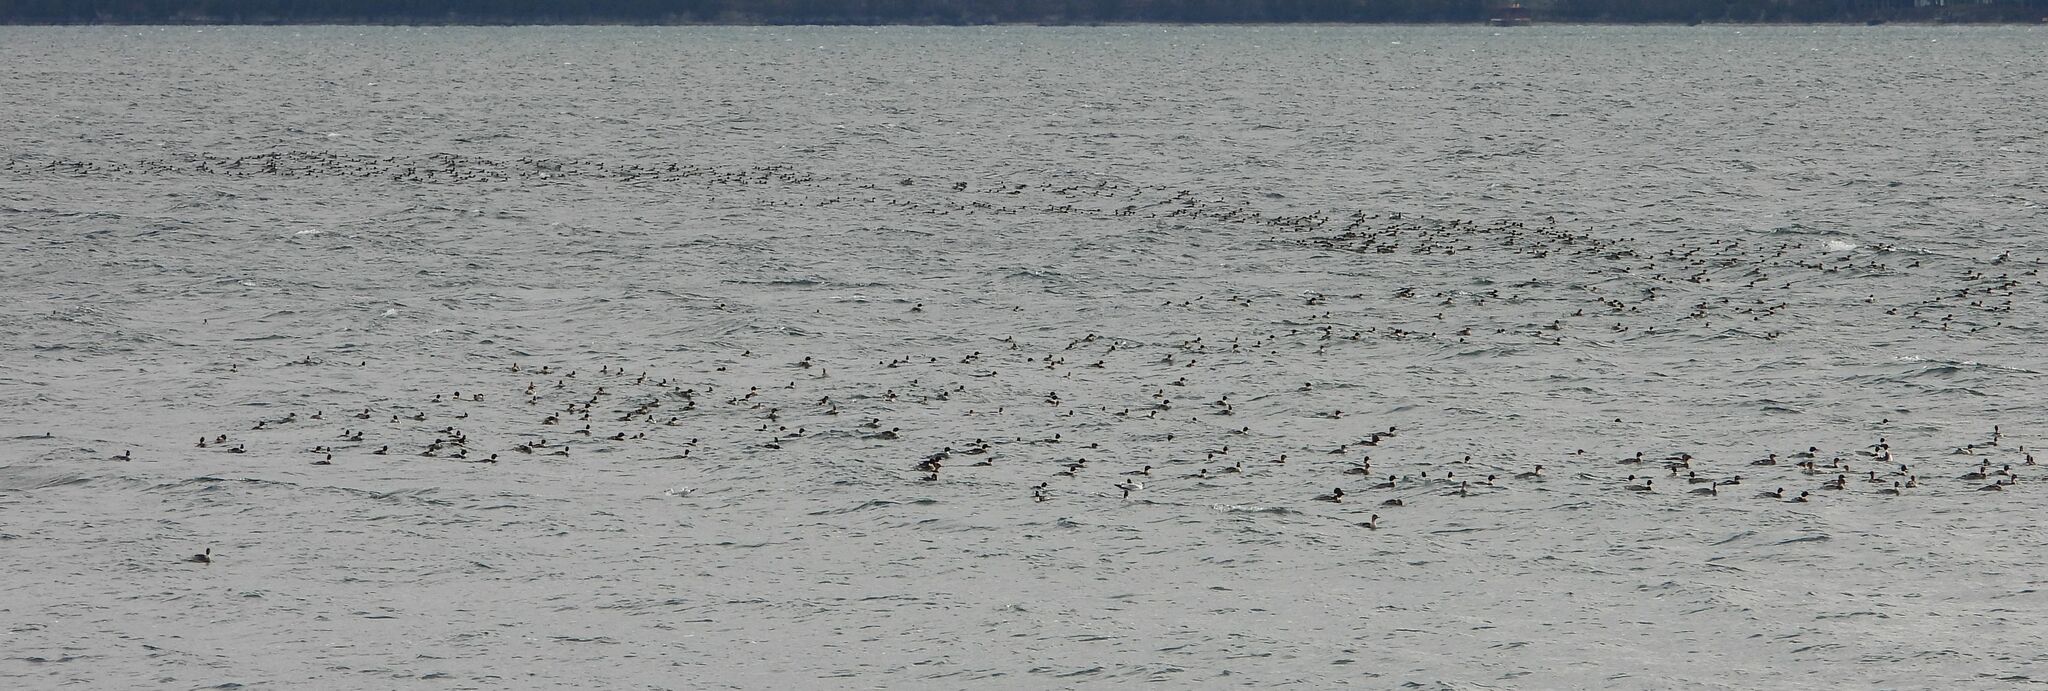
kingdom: Animalia
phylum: Chordata
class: Aves
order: Anseriformes
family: Anatidae
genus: Mergus
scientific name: Mergus serrator
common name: Red-breasted merganser
